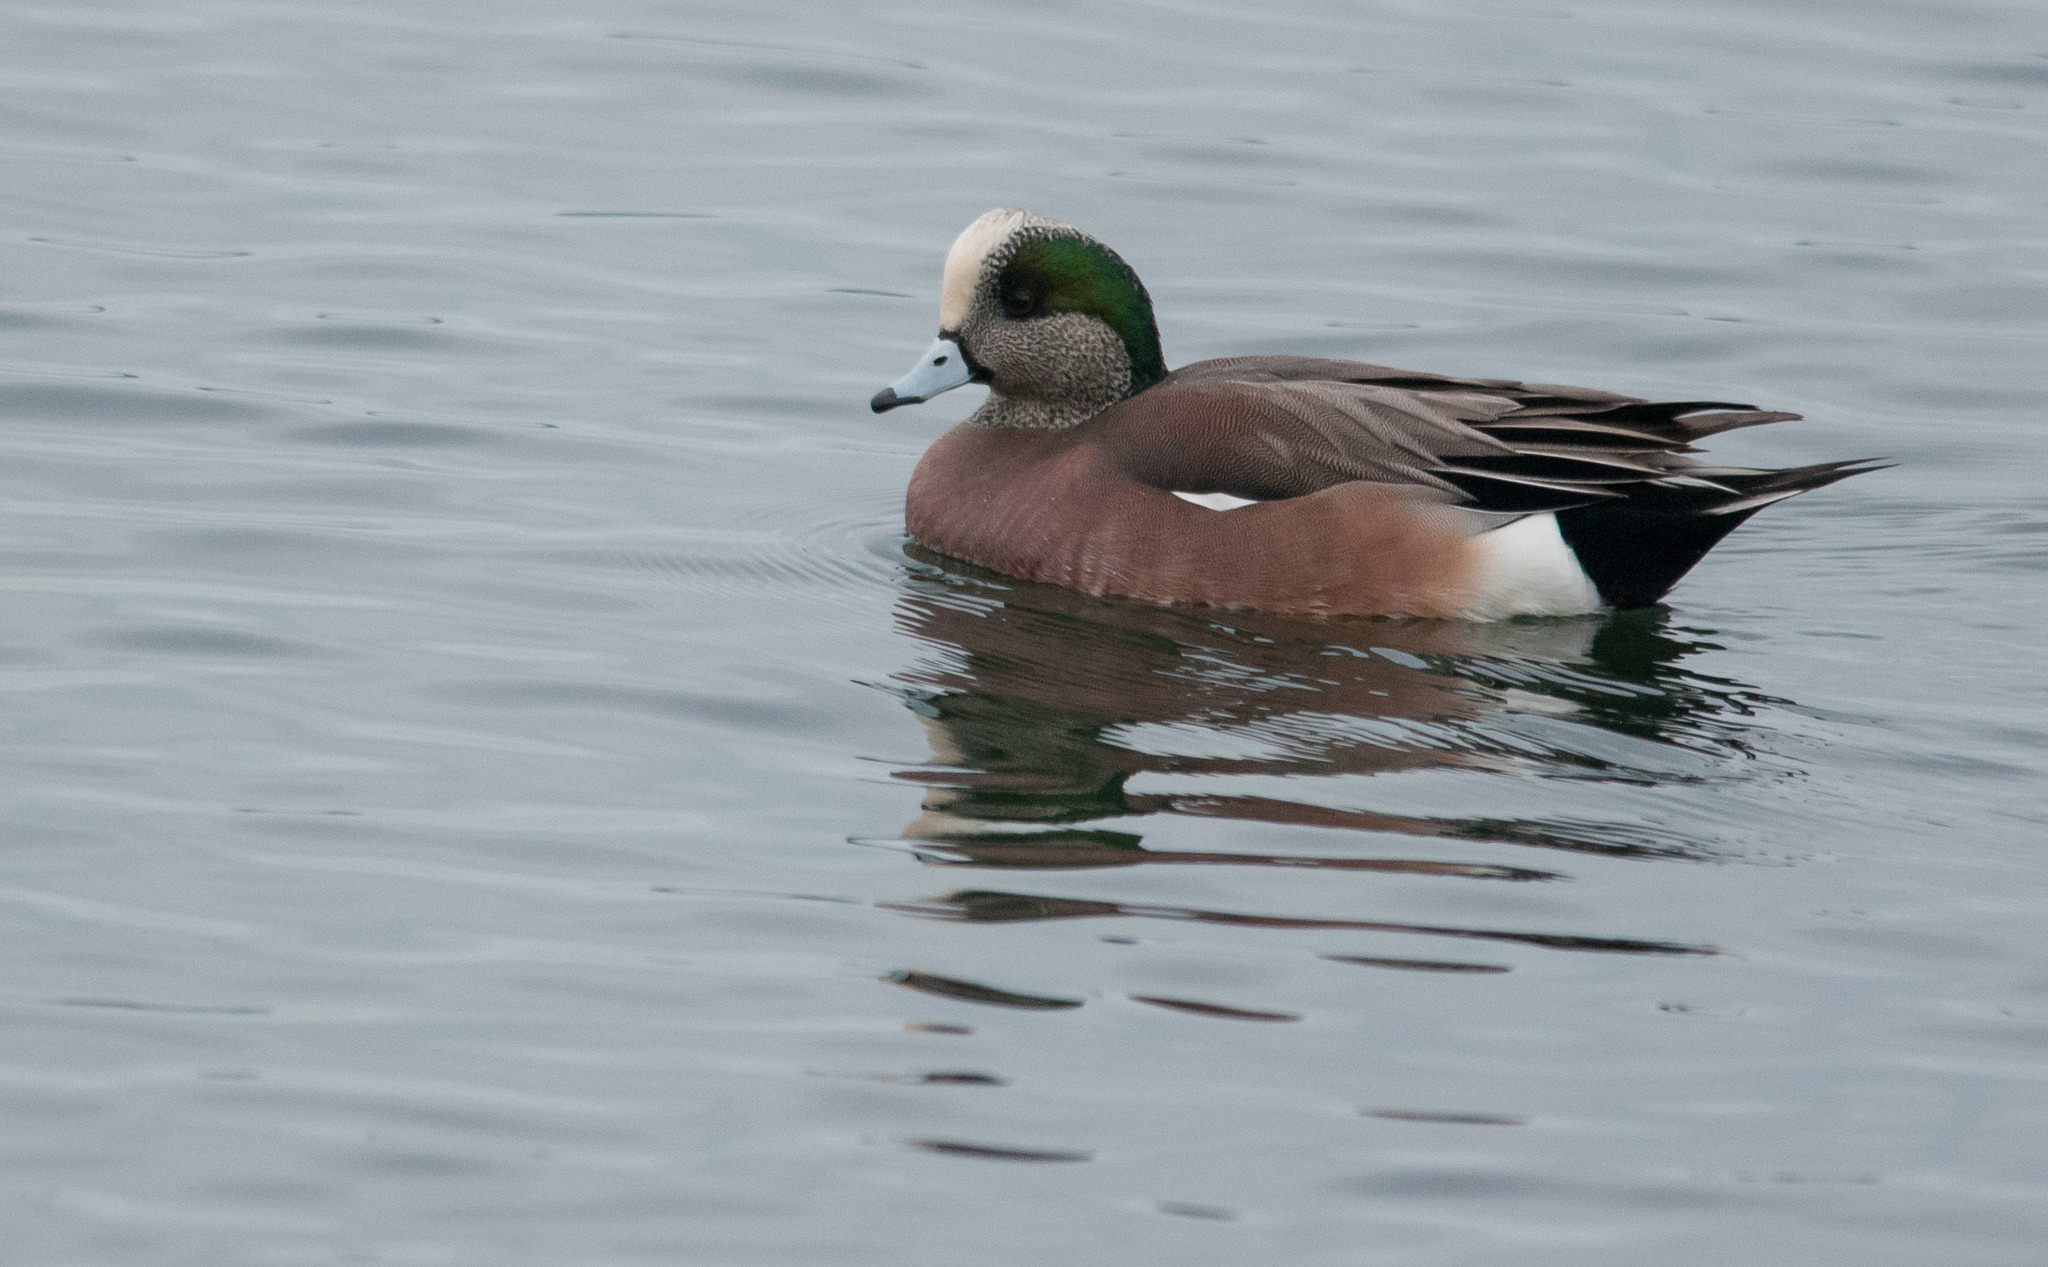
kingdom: Animalia
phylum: Chordata
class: Aves
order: Anseriformes
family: Anatidae
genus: Mareca
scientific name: Mareca americana
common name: American wigeon
